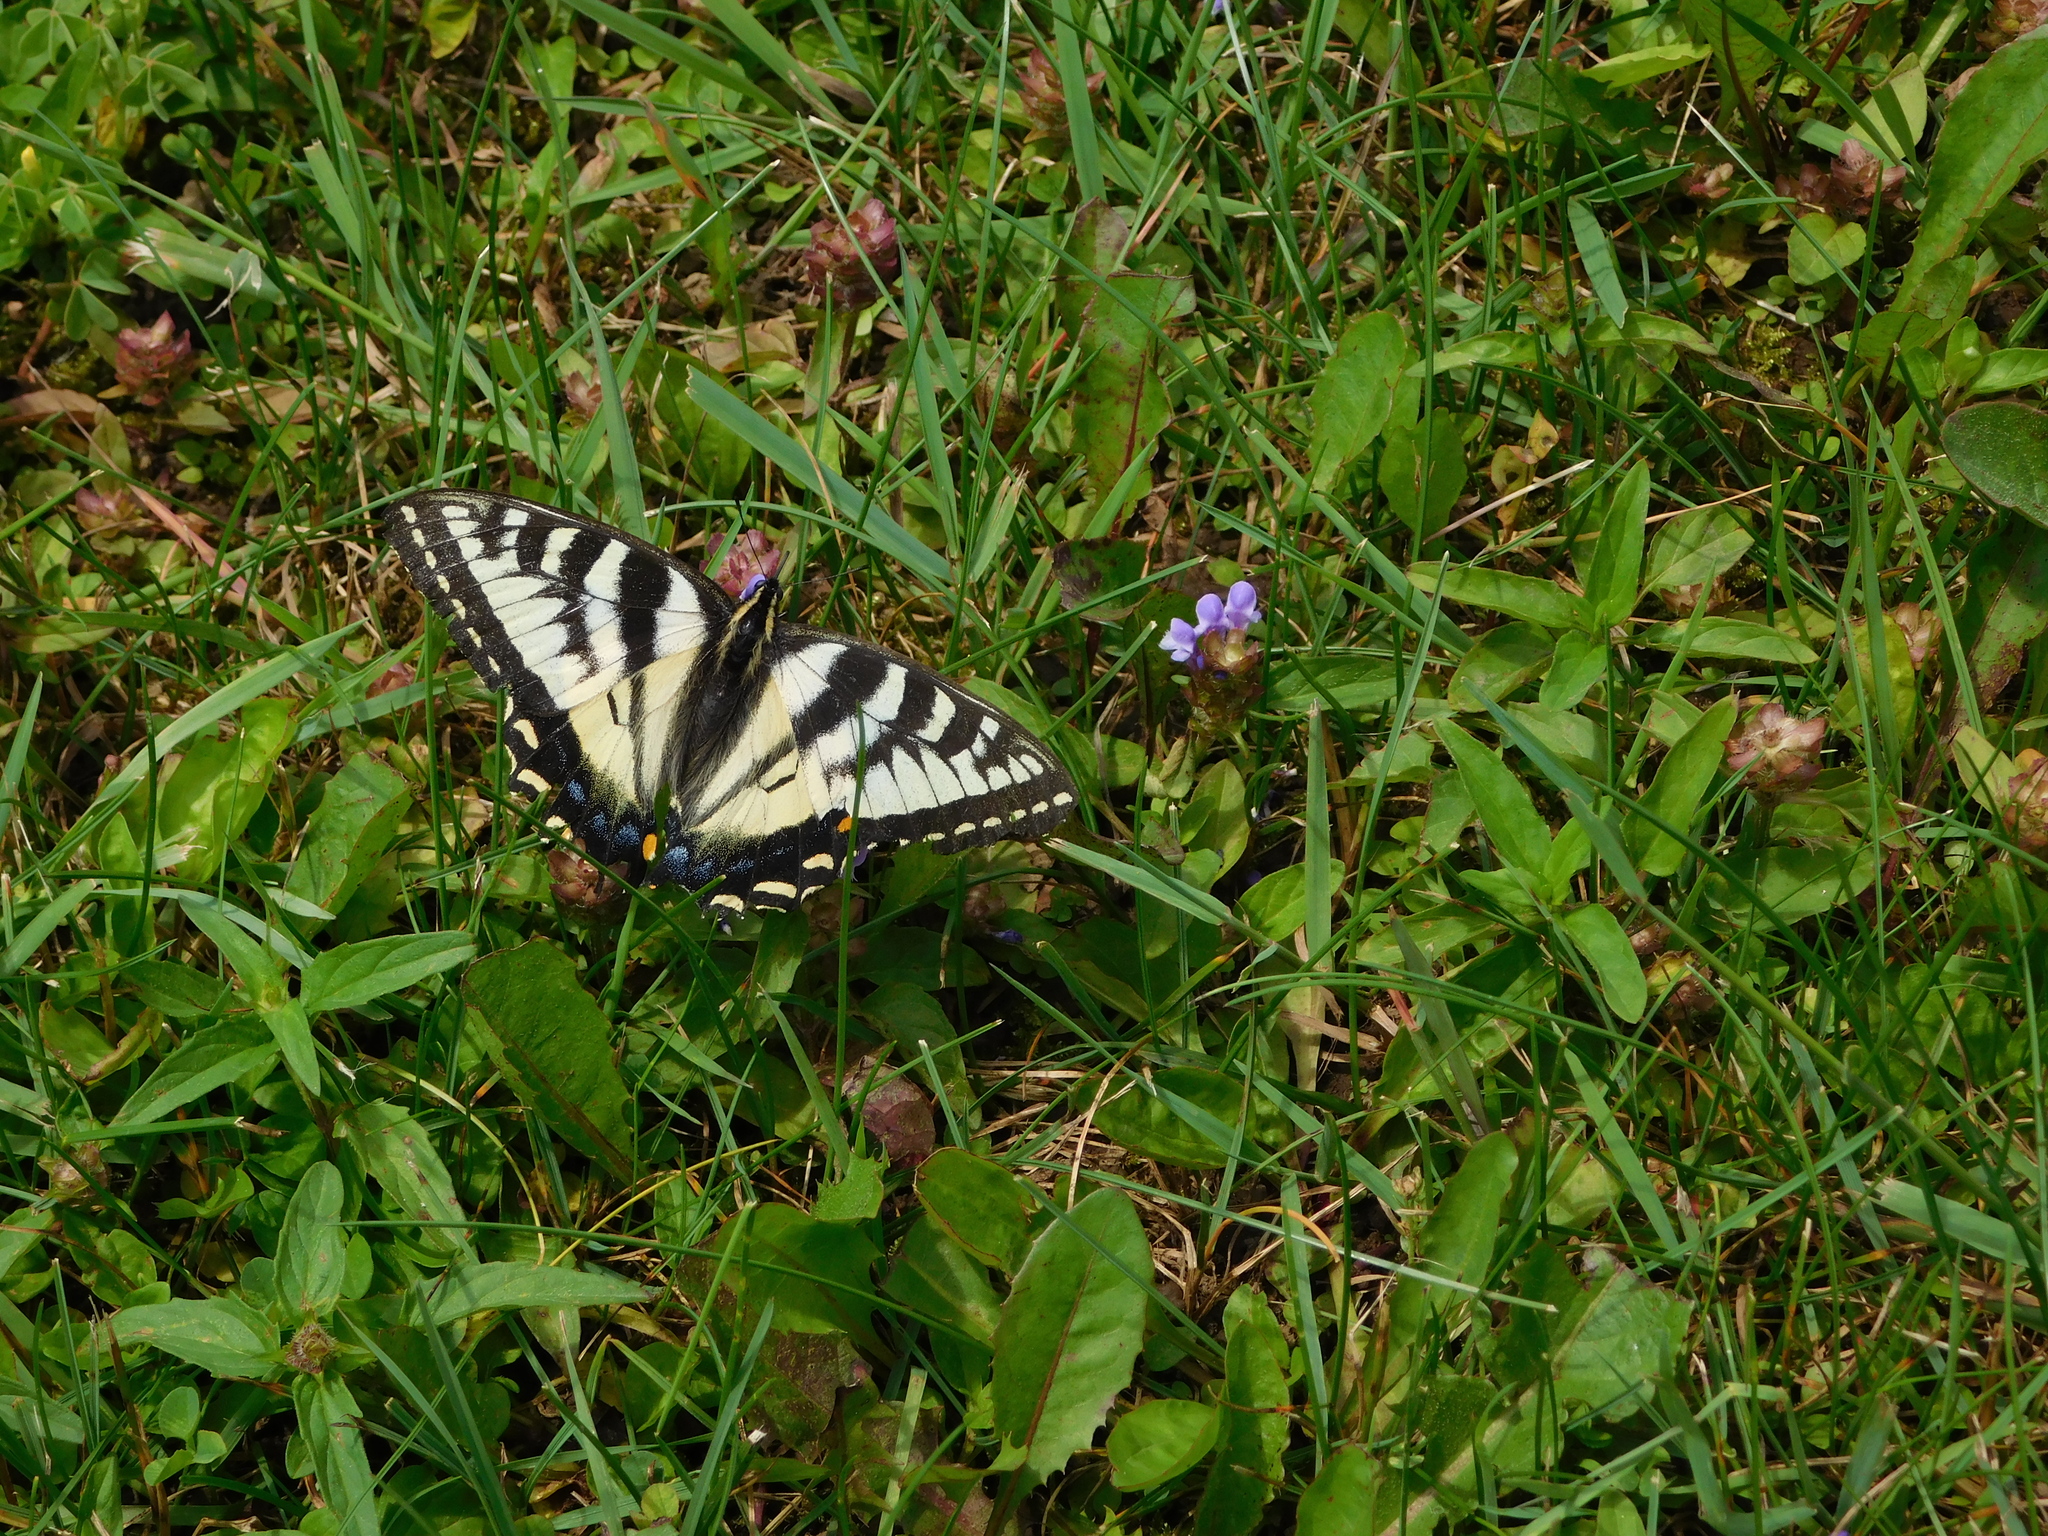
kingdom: Animalia
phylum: Arthropoda
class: Insecta
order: Lepidoptera
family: Papilionidae
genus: Papilio
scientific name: Papilio canadensis
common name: Canadian tiger swallowtail
